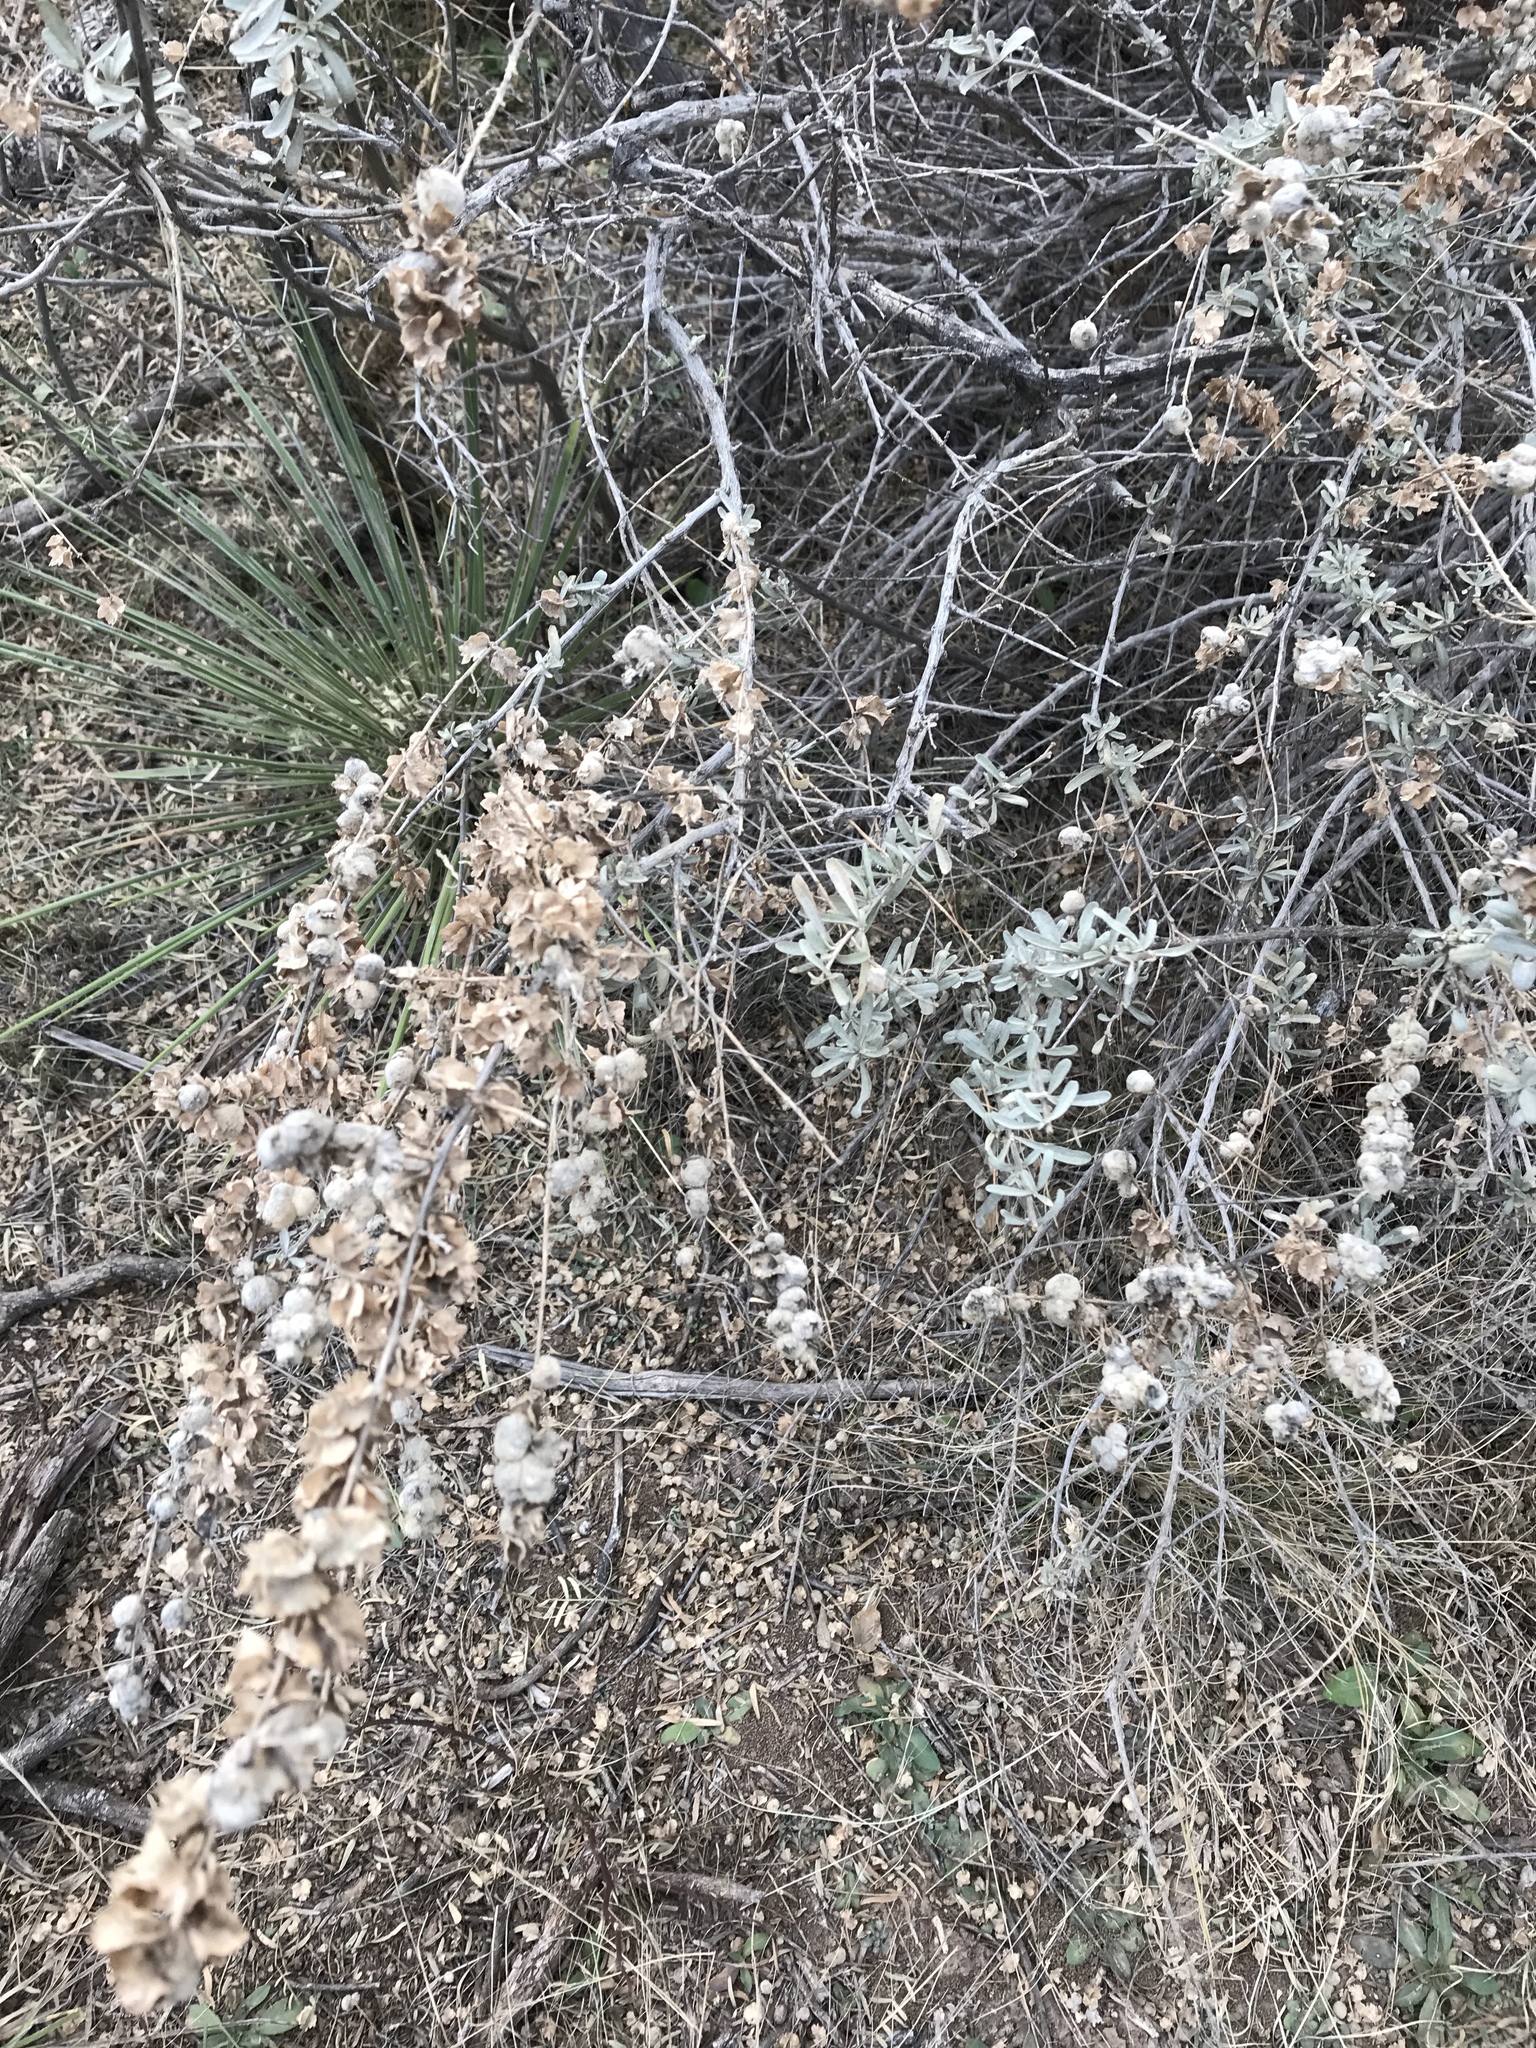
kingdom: Plantae
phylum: Tracheophyta
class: Magnoliopsida
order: Caryophyllales
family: Amaranthaceae
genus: Atriplex
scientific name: Atriplex canescens
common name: Four-wing saltbush
